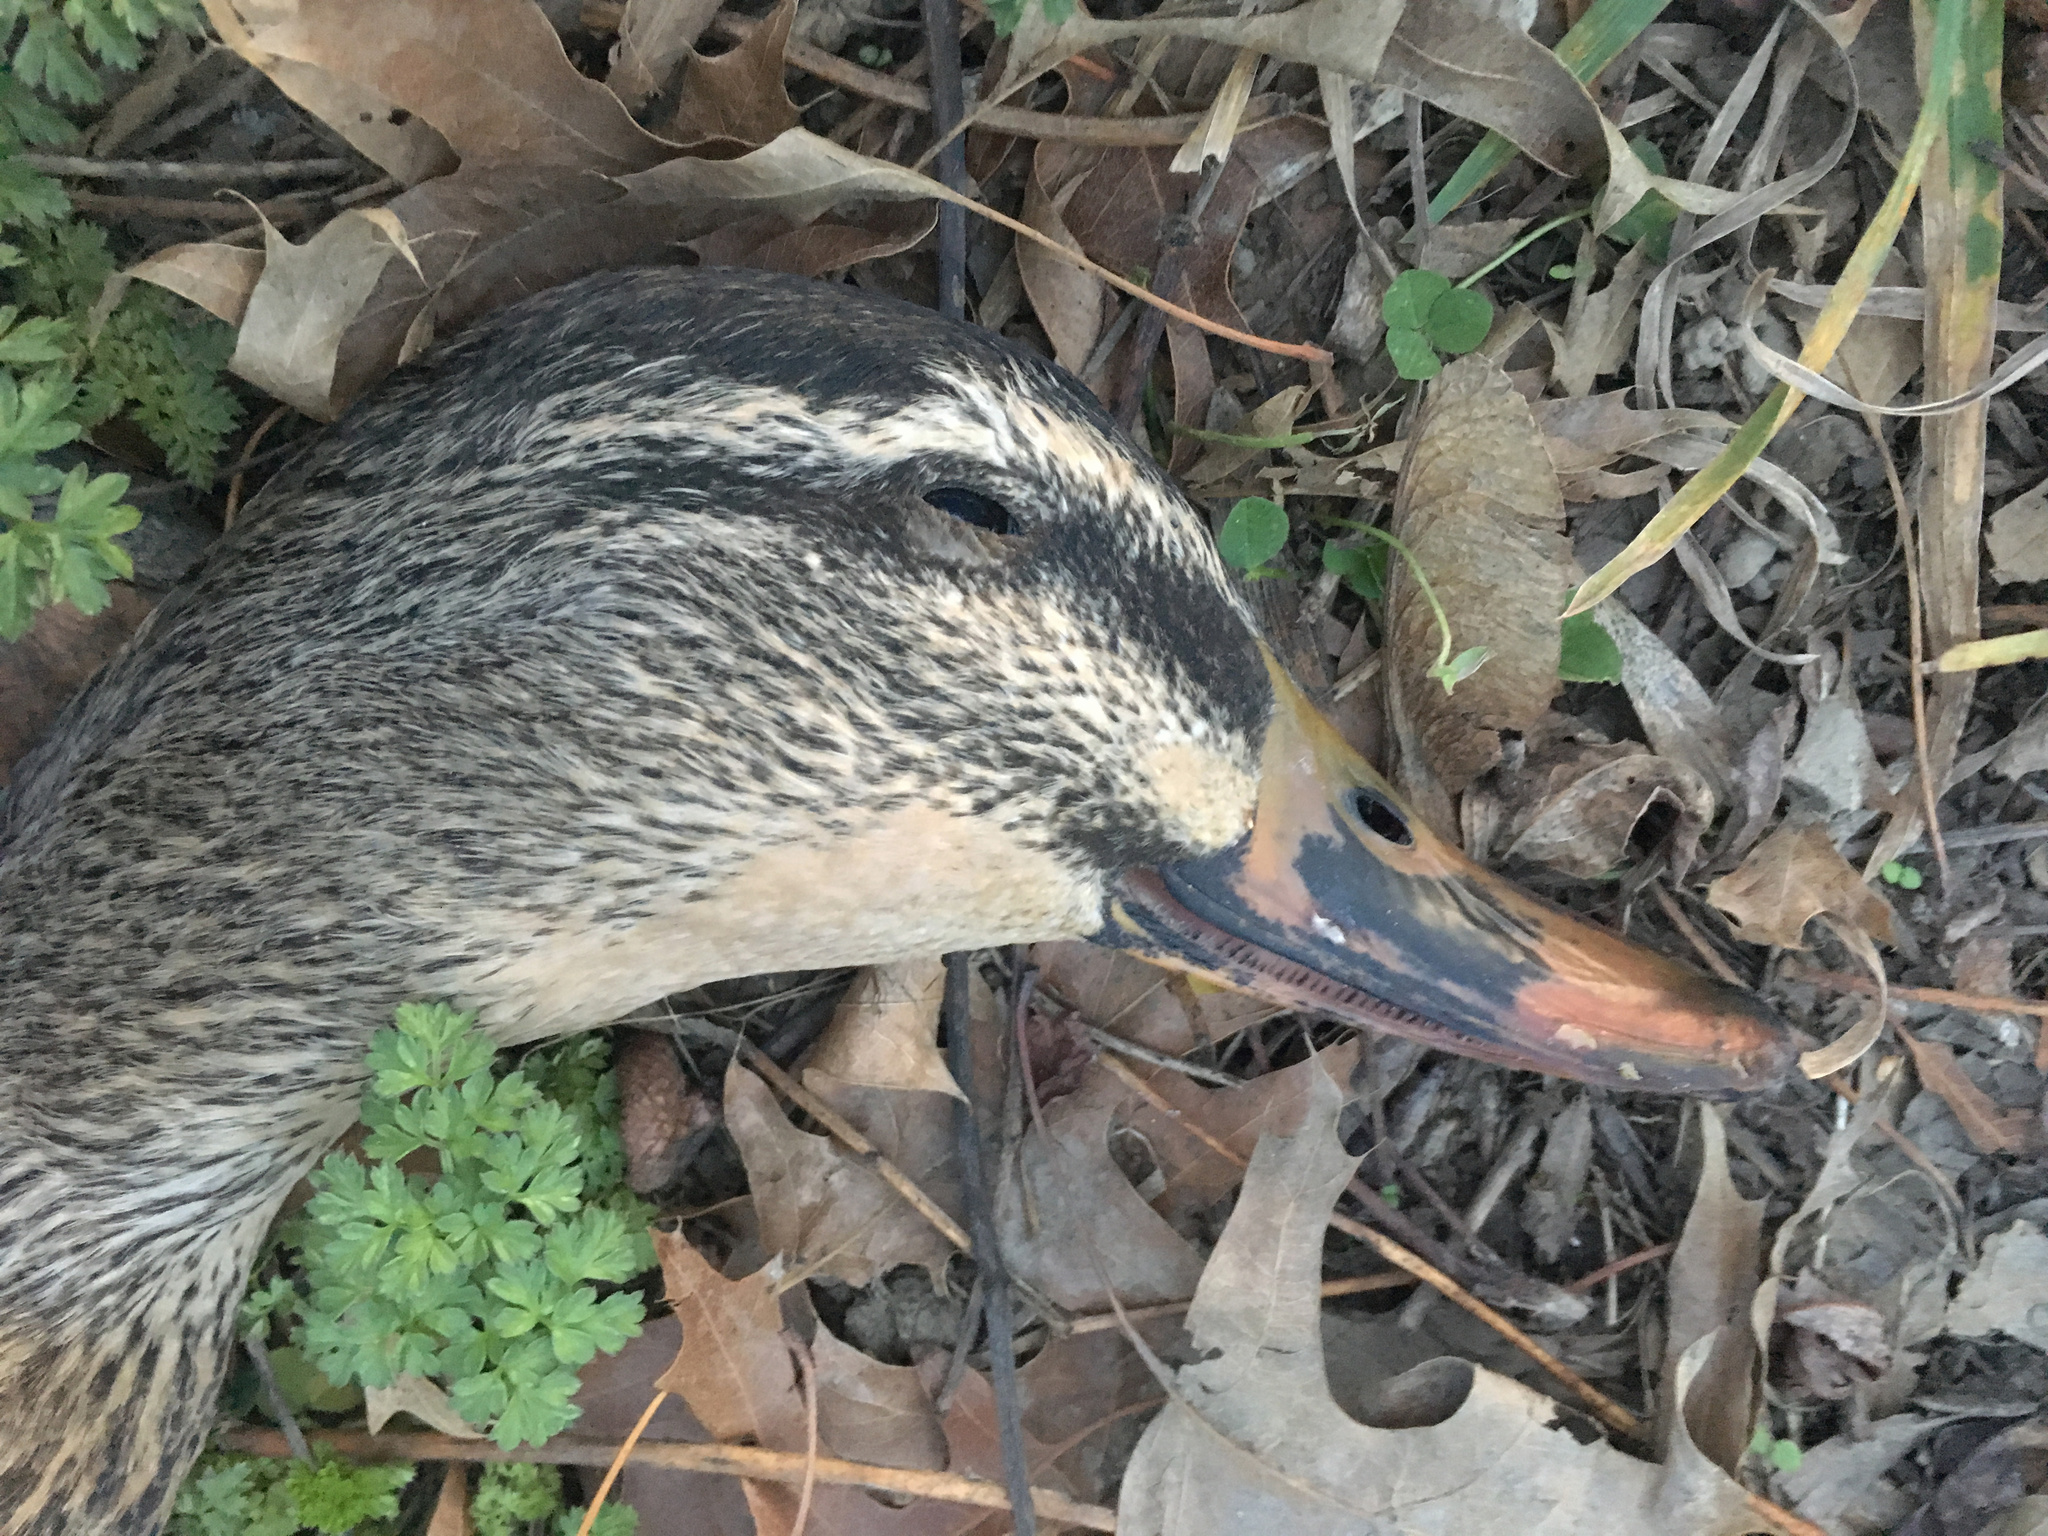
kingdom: Animalia
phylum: Chordata
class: Aves
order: Anseriformes
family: Anatidae
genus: Anas
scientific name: Anas
